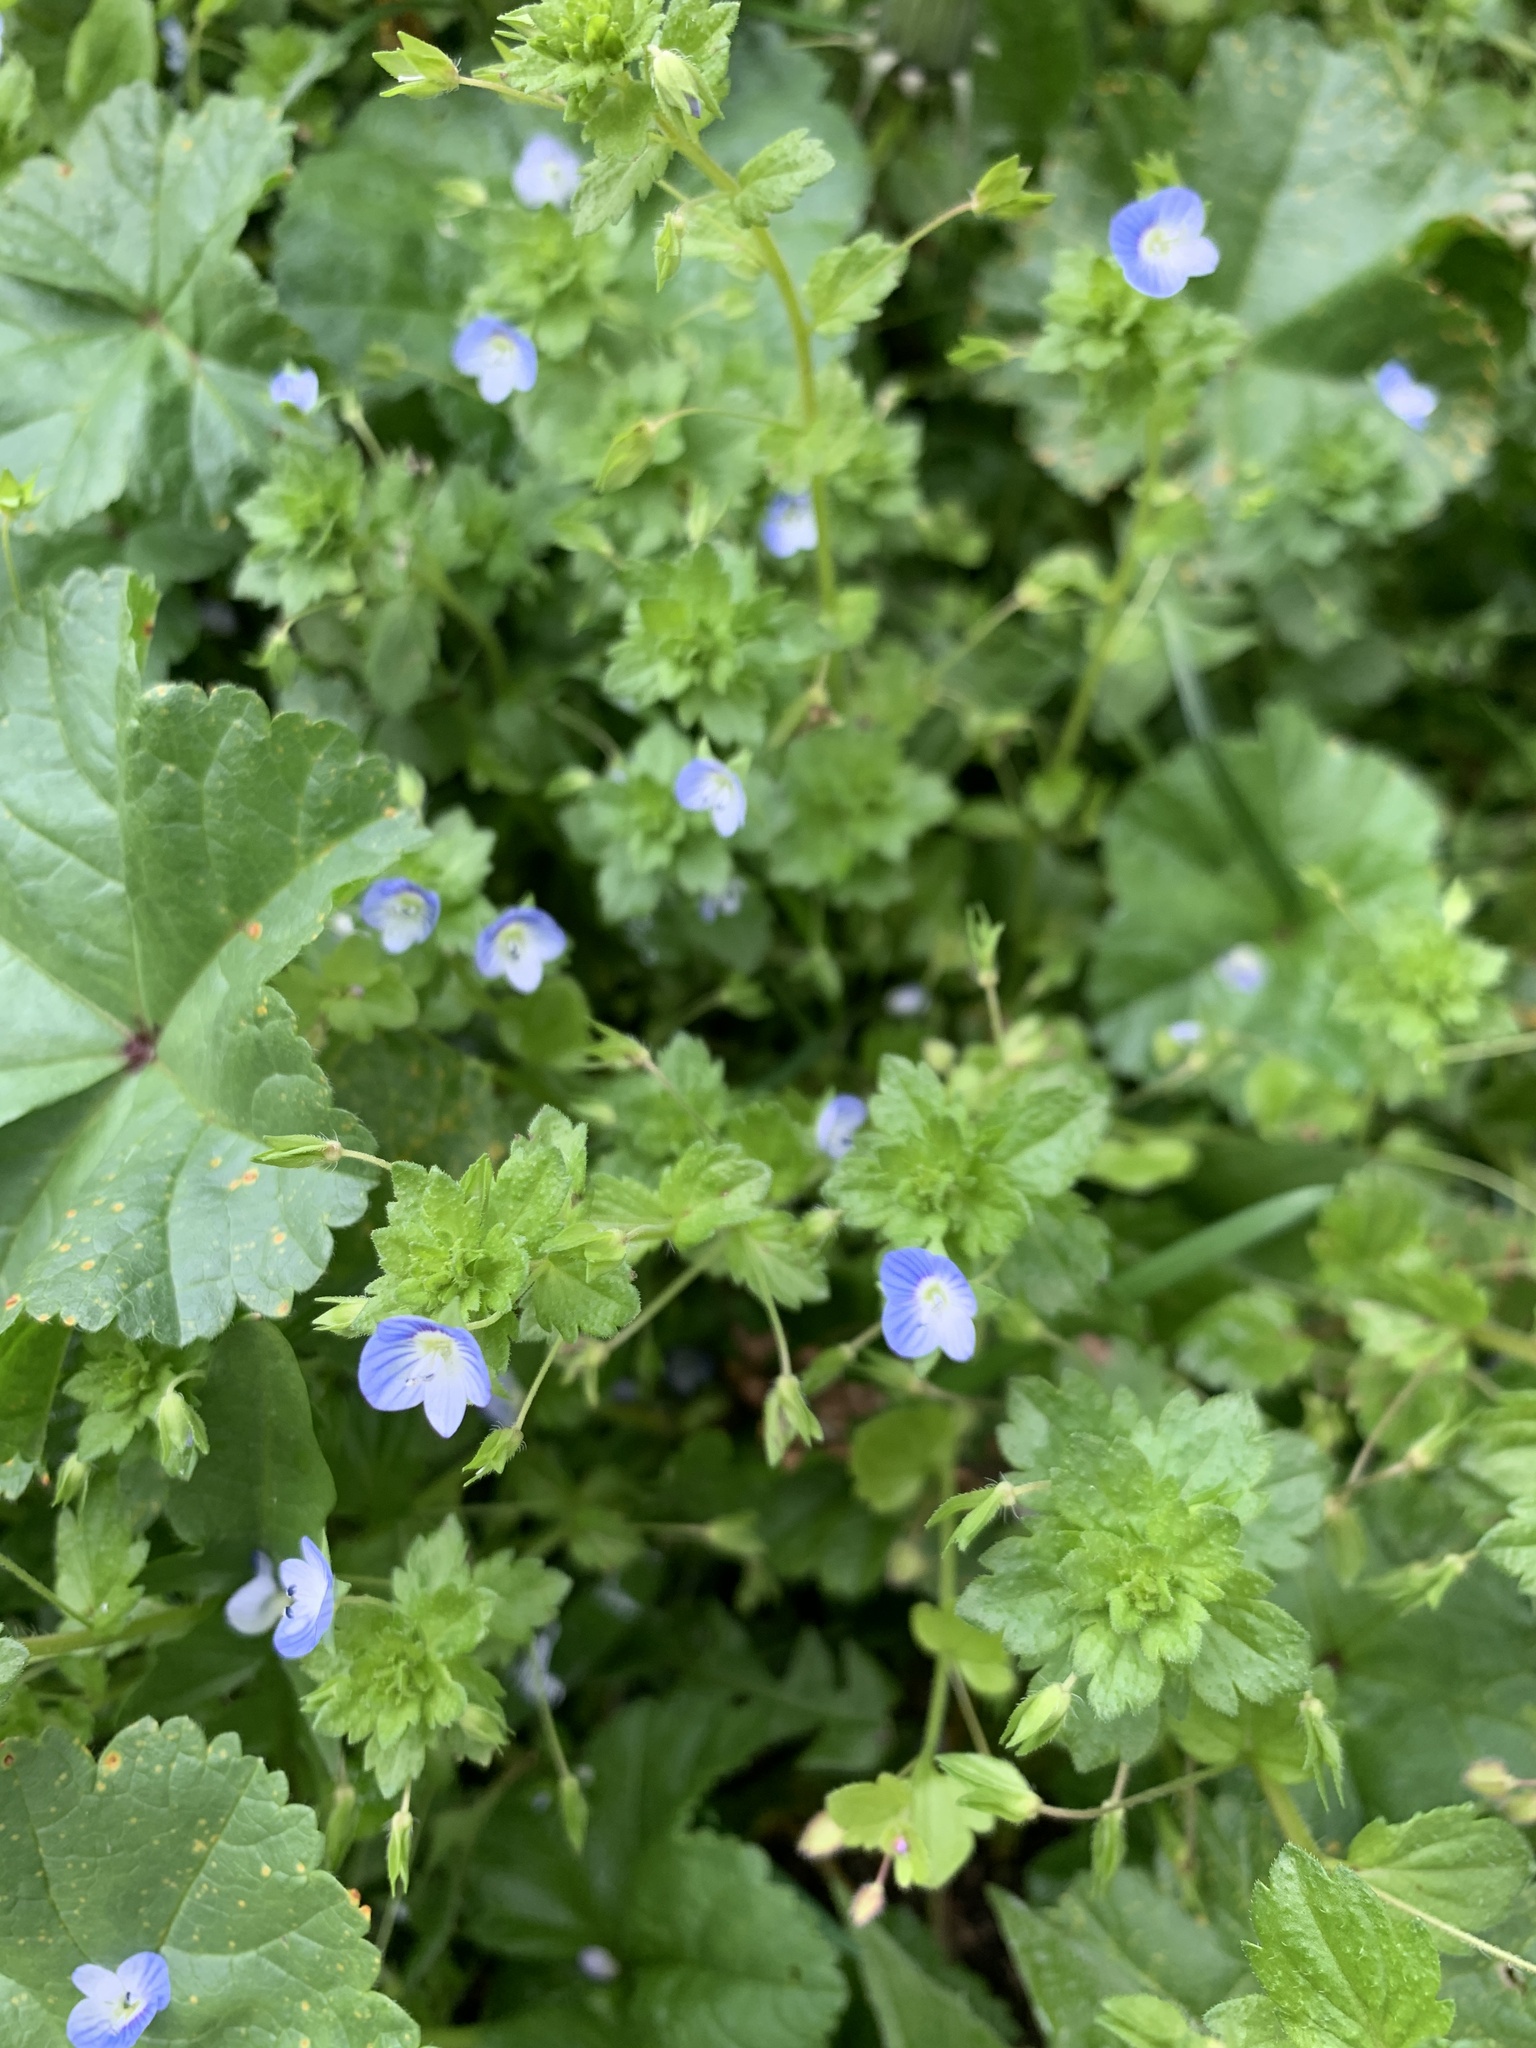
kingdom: Plantae
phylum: Tracheophyta
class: Magnoliopsida
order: Lamiales
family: Plantaginaceae
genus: Veronica
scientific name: Veronica persica
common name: Common field-speedwell
